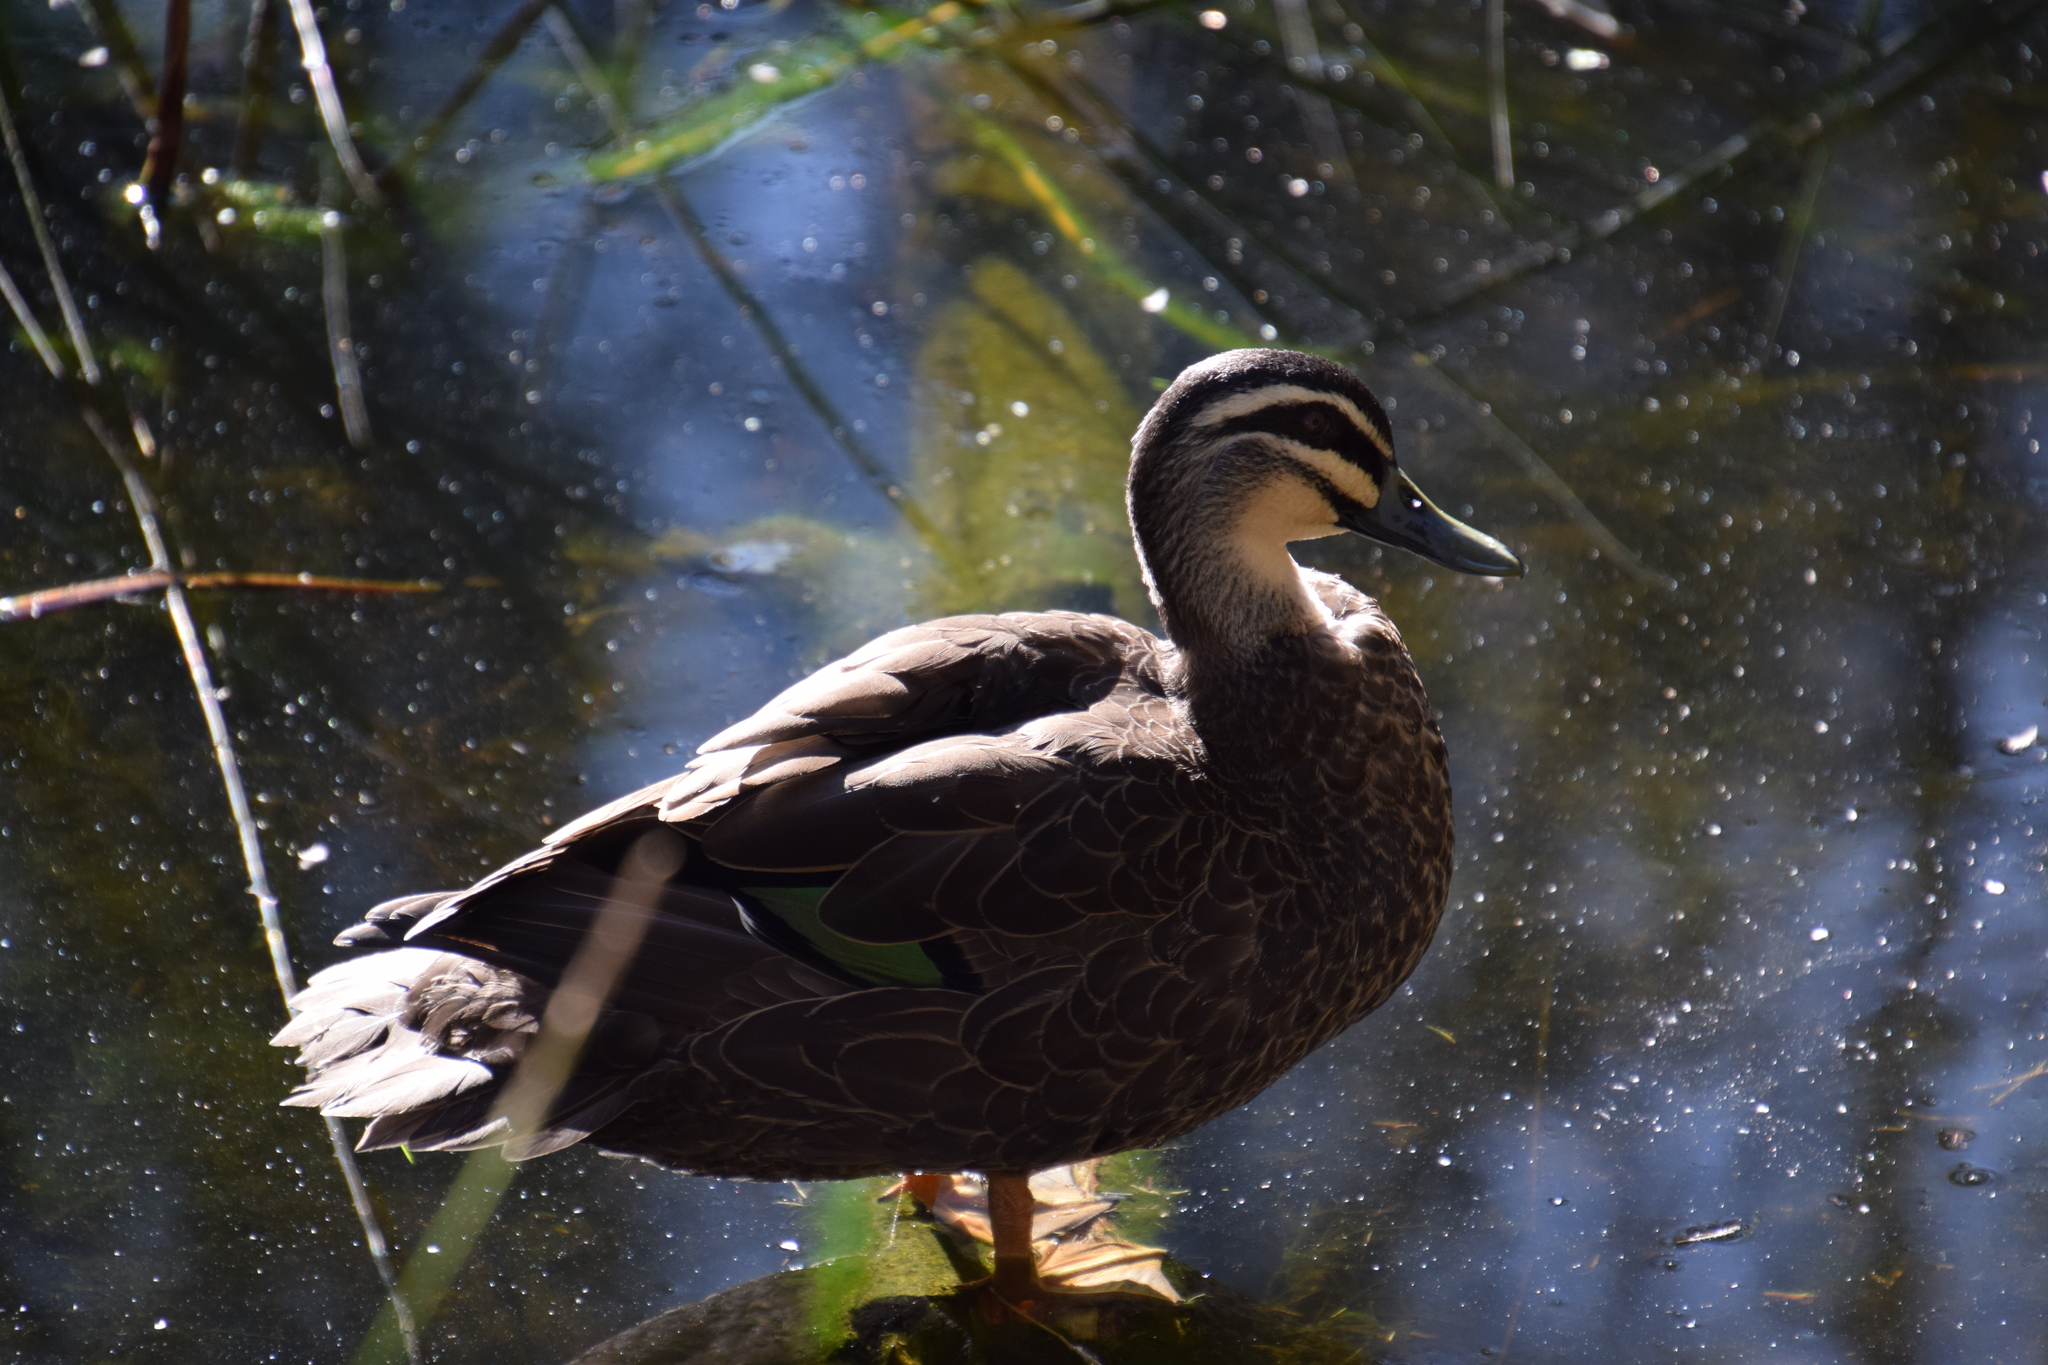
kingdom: Animalia
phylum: Chordata
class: Aves
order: Anseriformes
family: Anatidae
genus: Anas
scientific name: Anas
